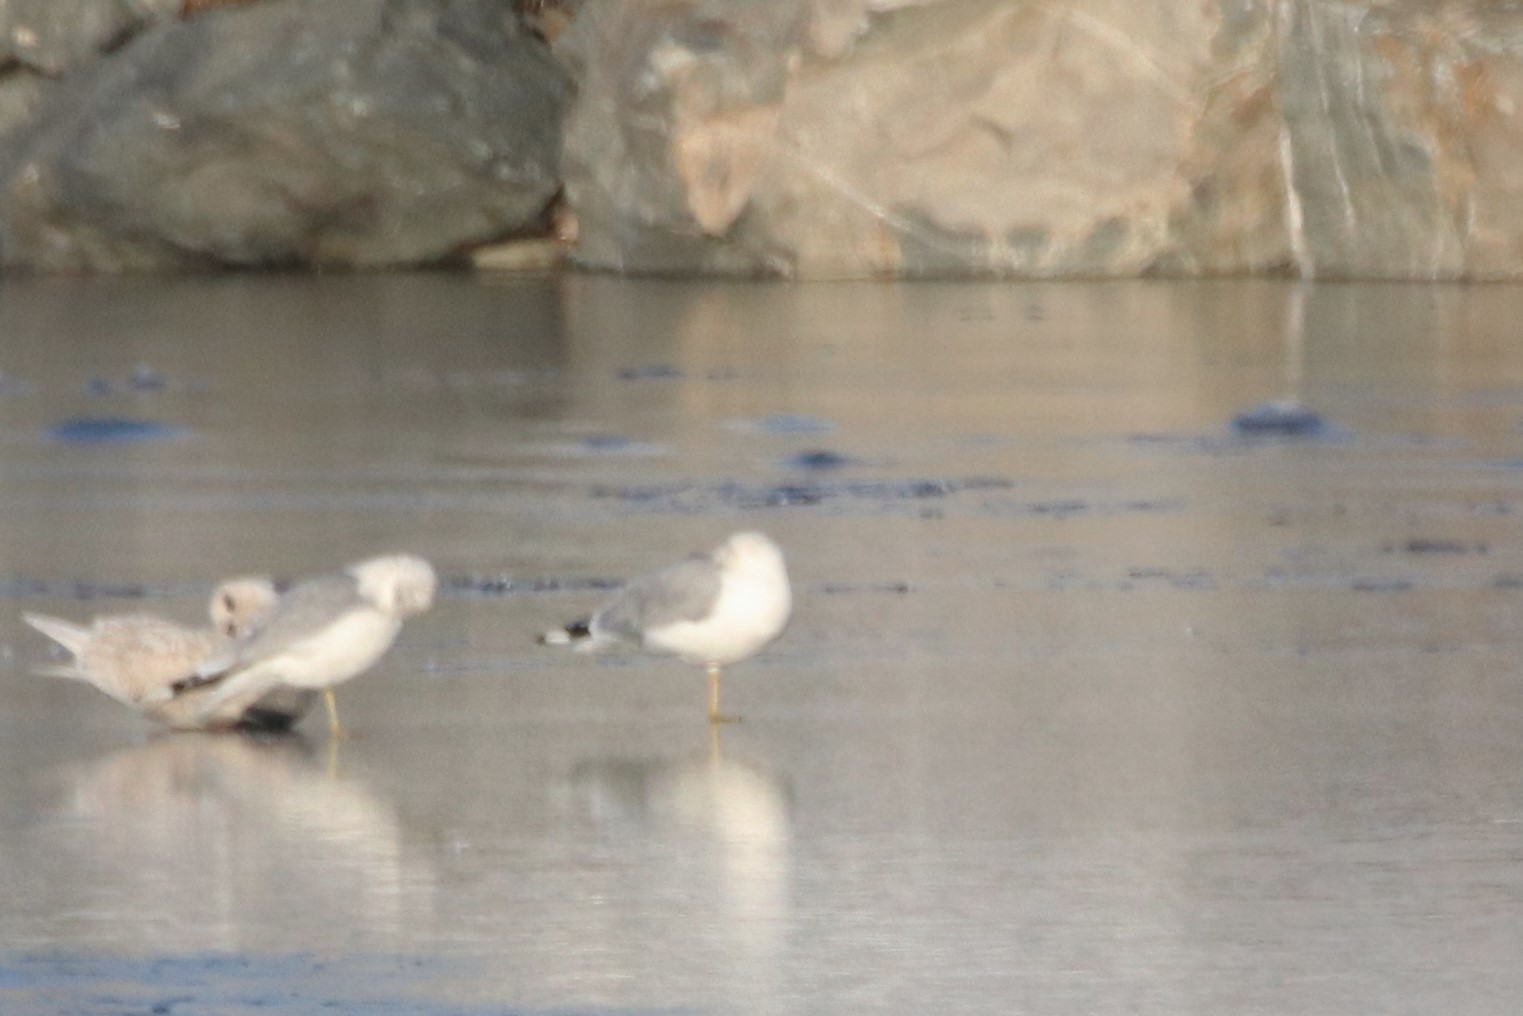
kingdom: Animalia
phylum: Chordata
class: Aves
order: Charadriiformes
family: Laridae
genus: Larus
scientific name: Larus delawarensis
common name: Ring-billed gull
